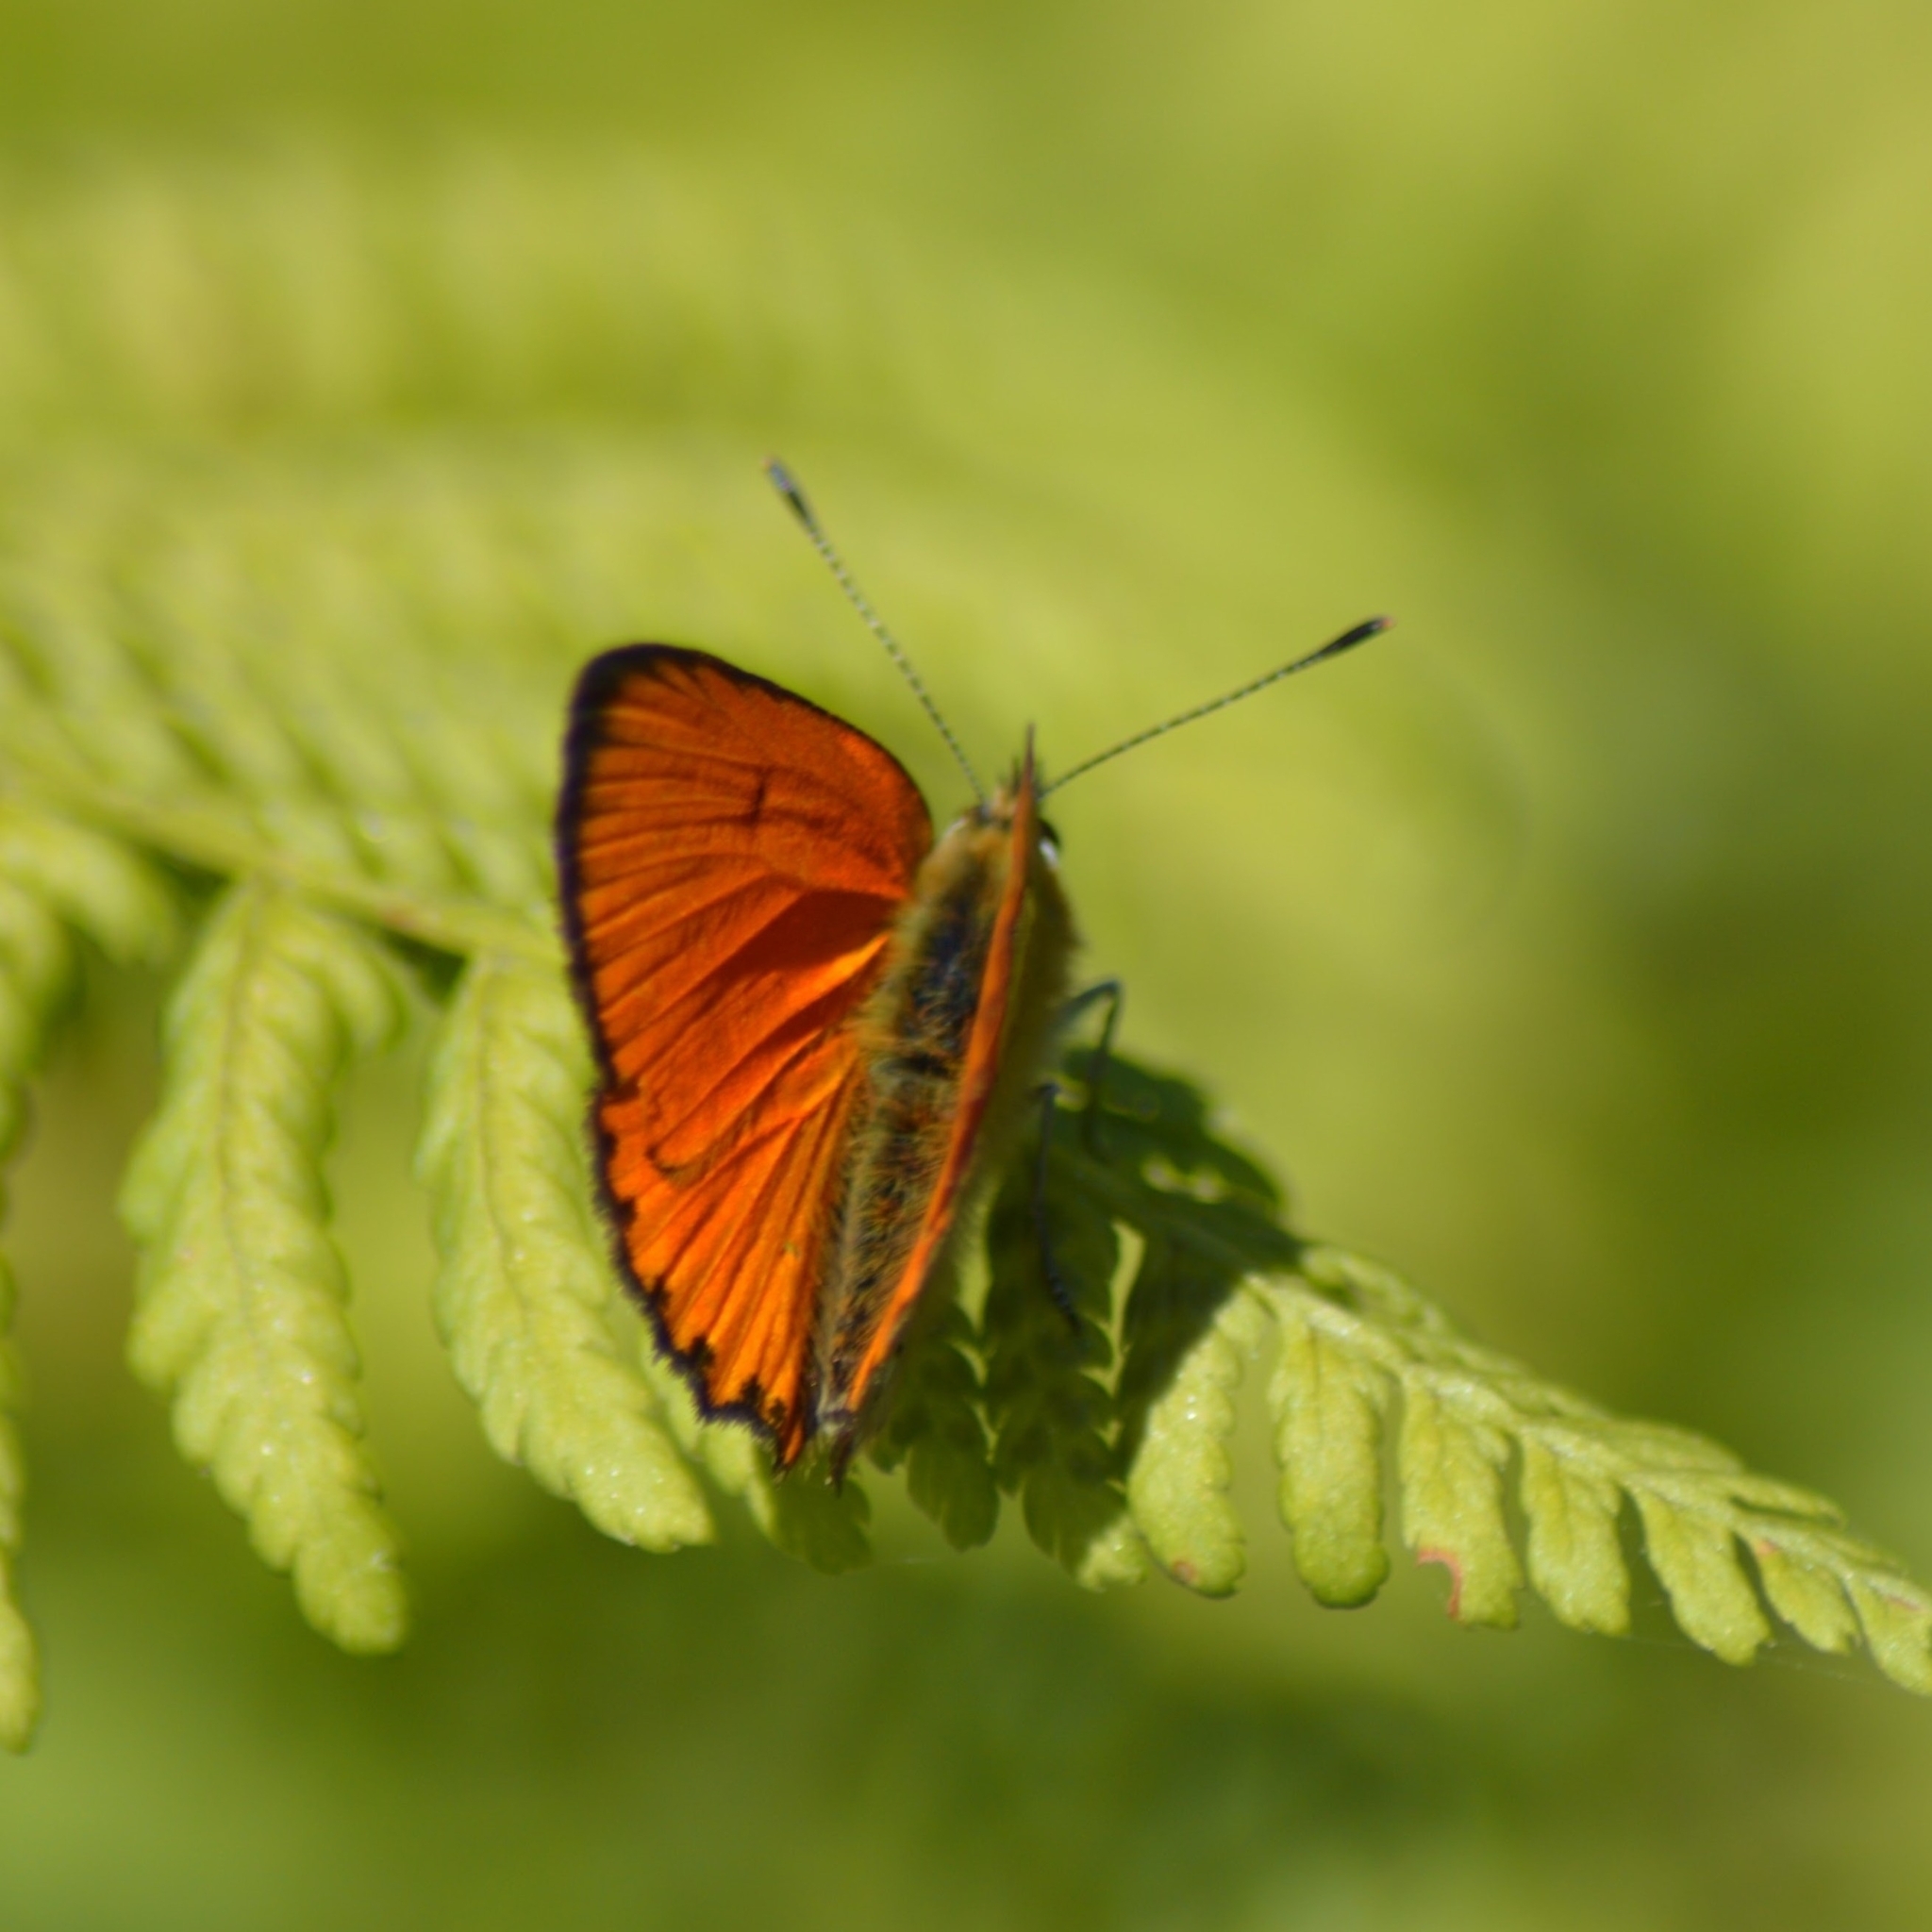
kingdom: Animalia
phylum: Arthropoda
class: Insecta
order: Lepidoptera
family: Lycaenidae
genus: Lycaena
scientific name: Lycaena virgaureae
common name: Scarce copper
